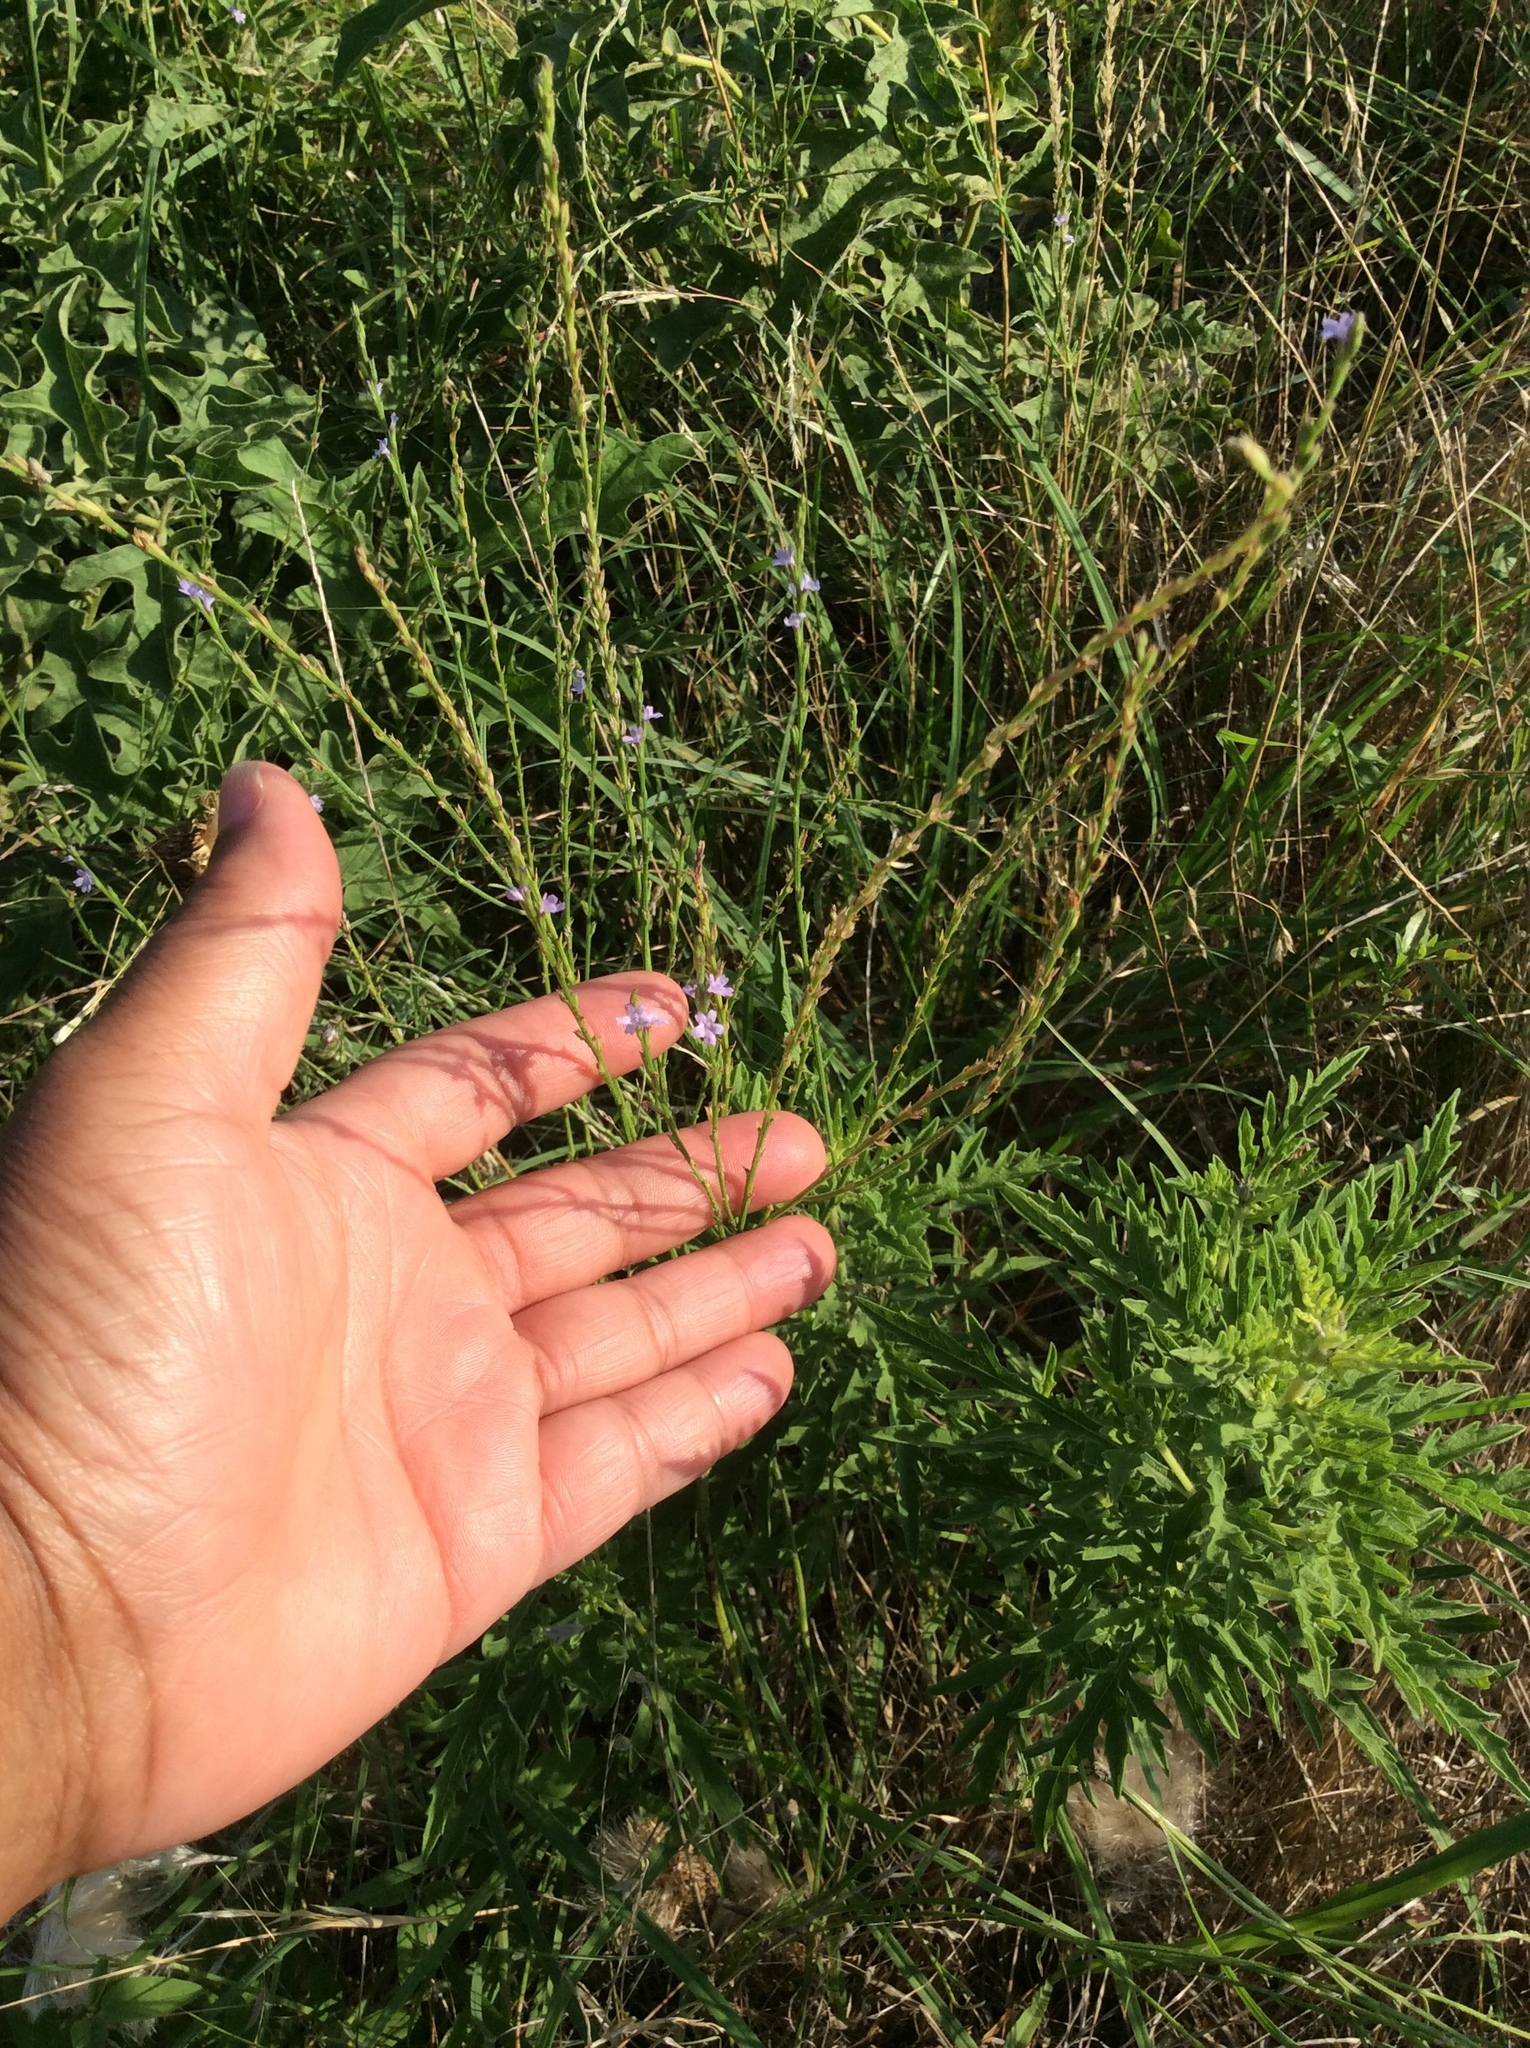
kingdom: Plantae
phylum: Tracheophyta
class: Magnoliopsida
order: Lamiales
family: Verbenaceae
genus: Verbena
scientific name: Verbena halei
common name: Texas vervain
